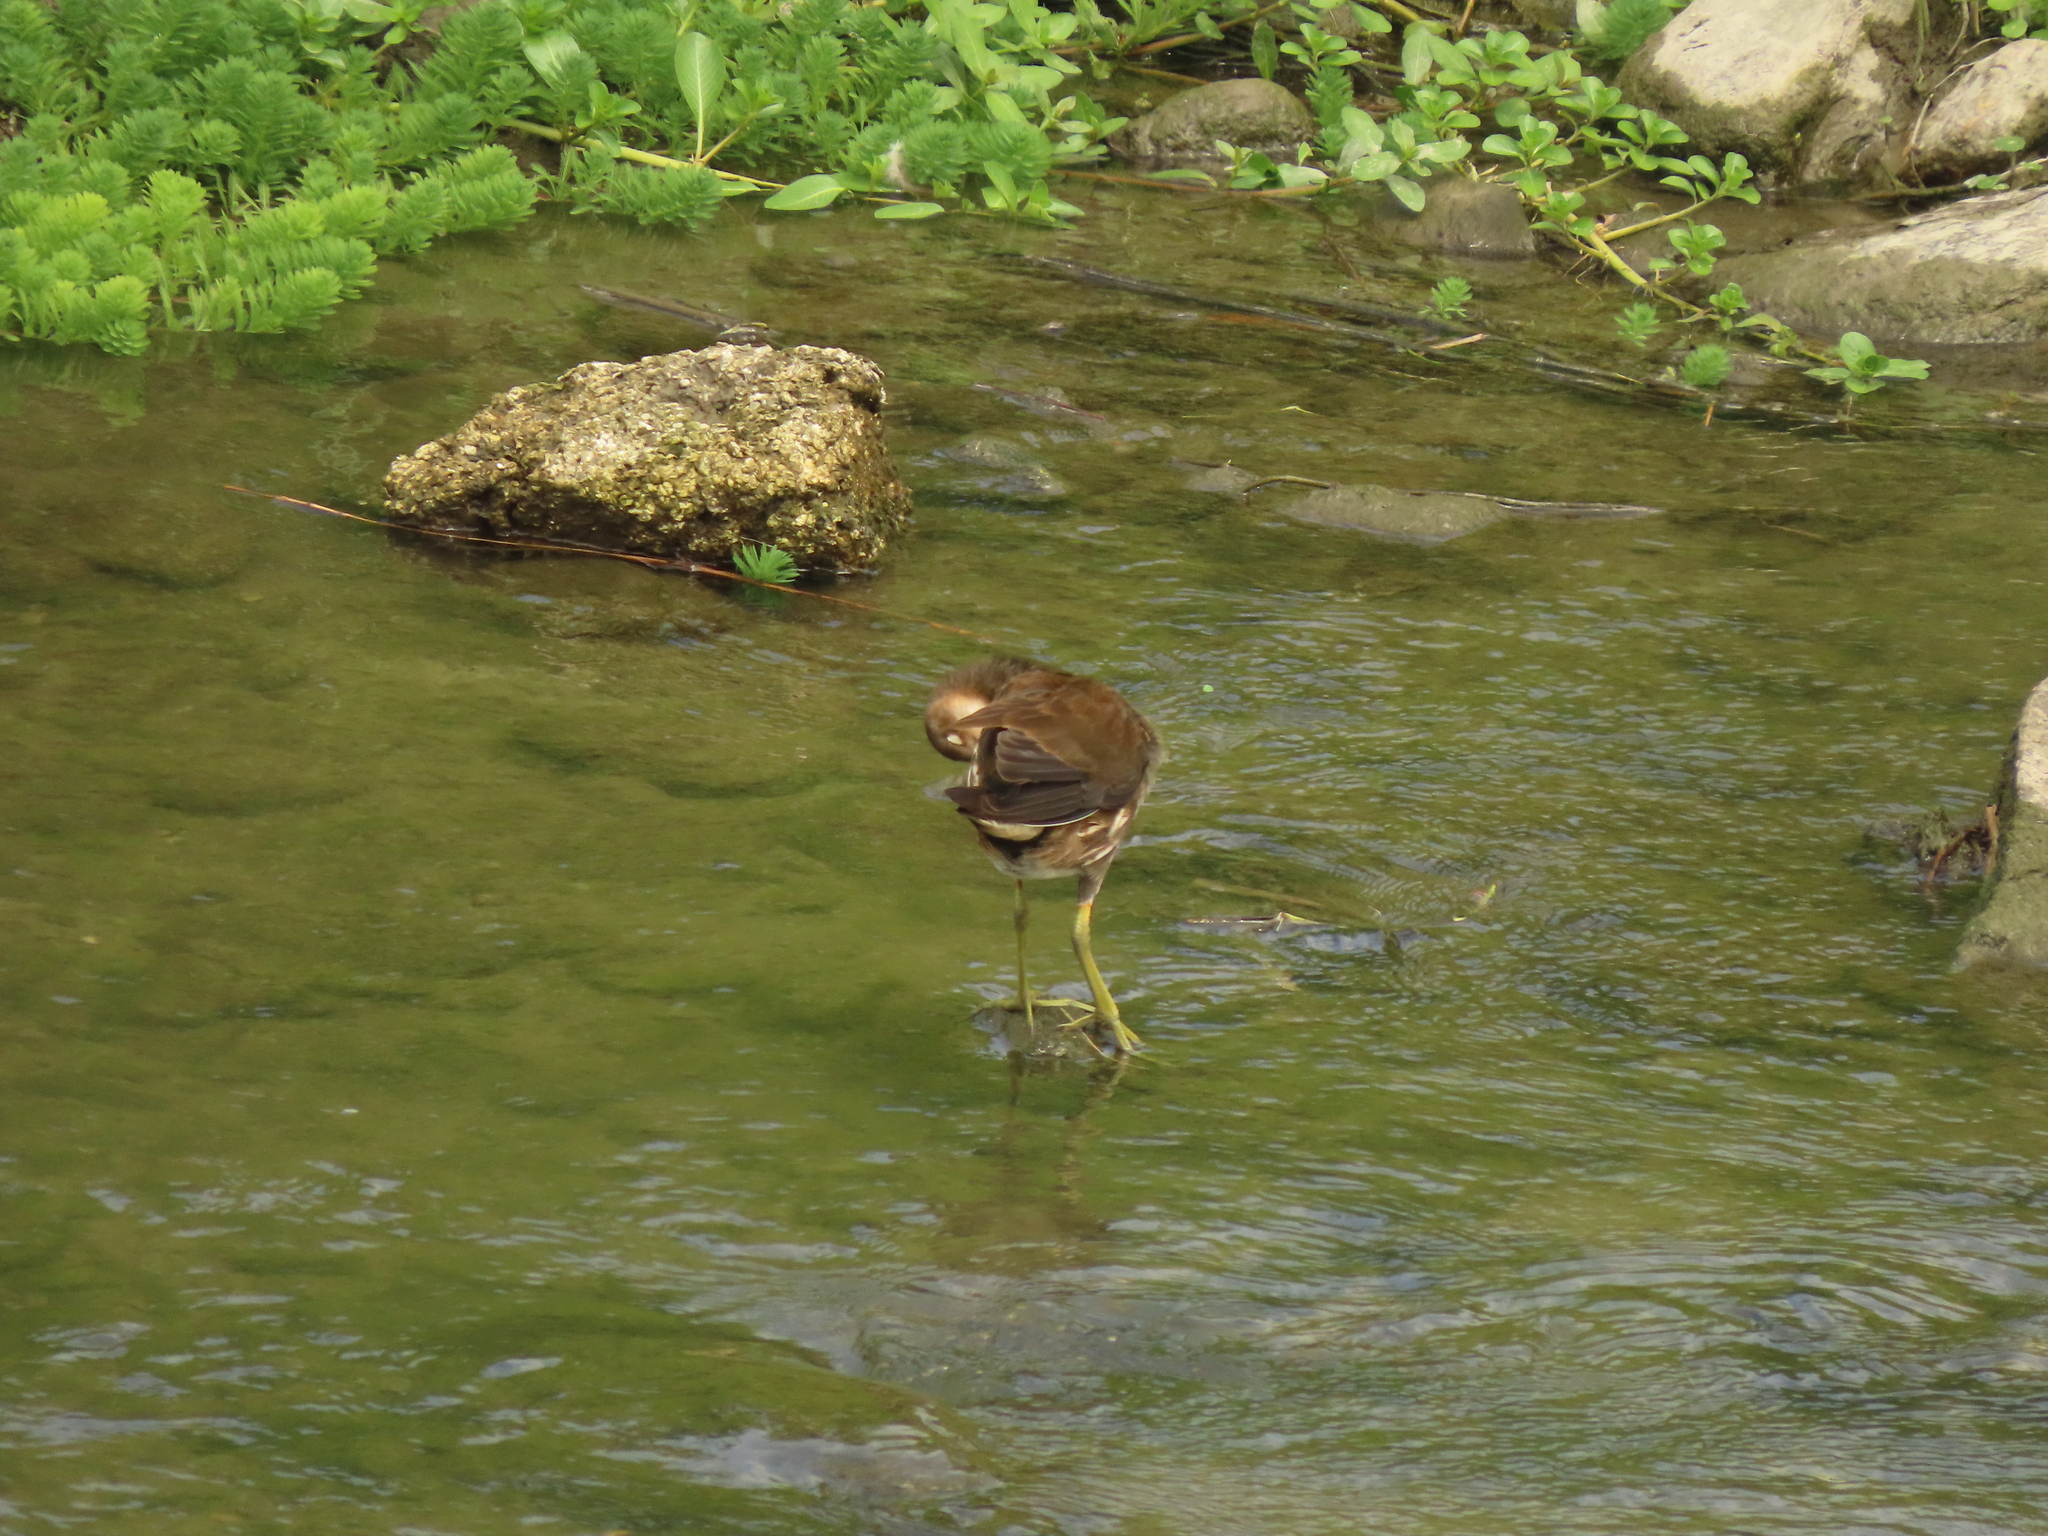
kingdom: Animalia
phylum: Chordata
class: Aves
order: Gruiformes
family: Rallidae
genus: Gallinula
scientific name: Gallinula chloropus
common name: Common moorhen
